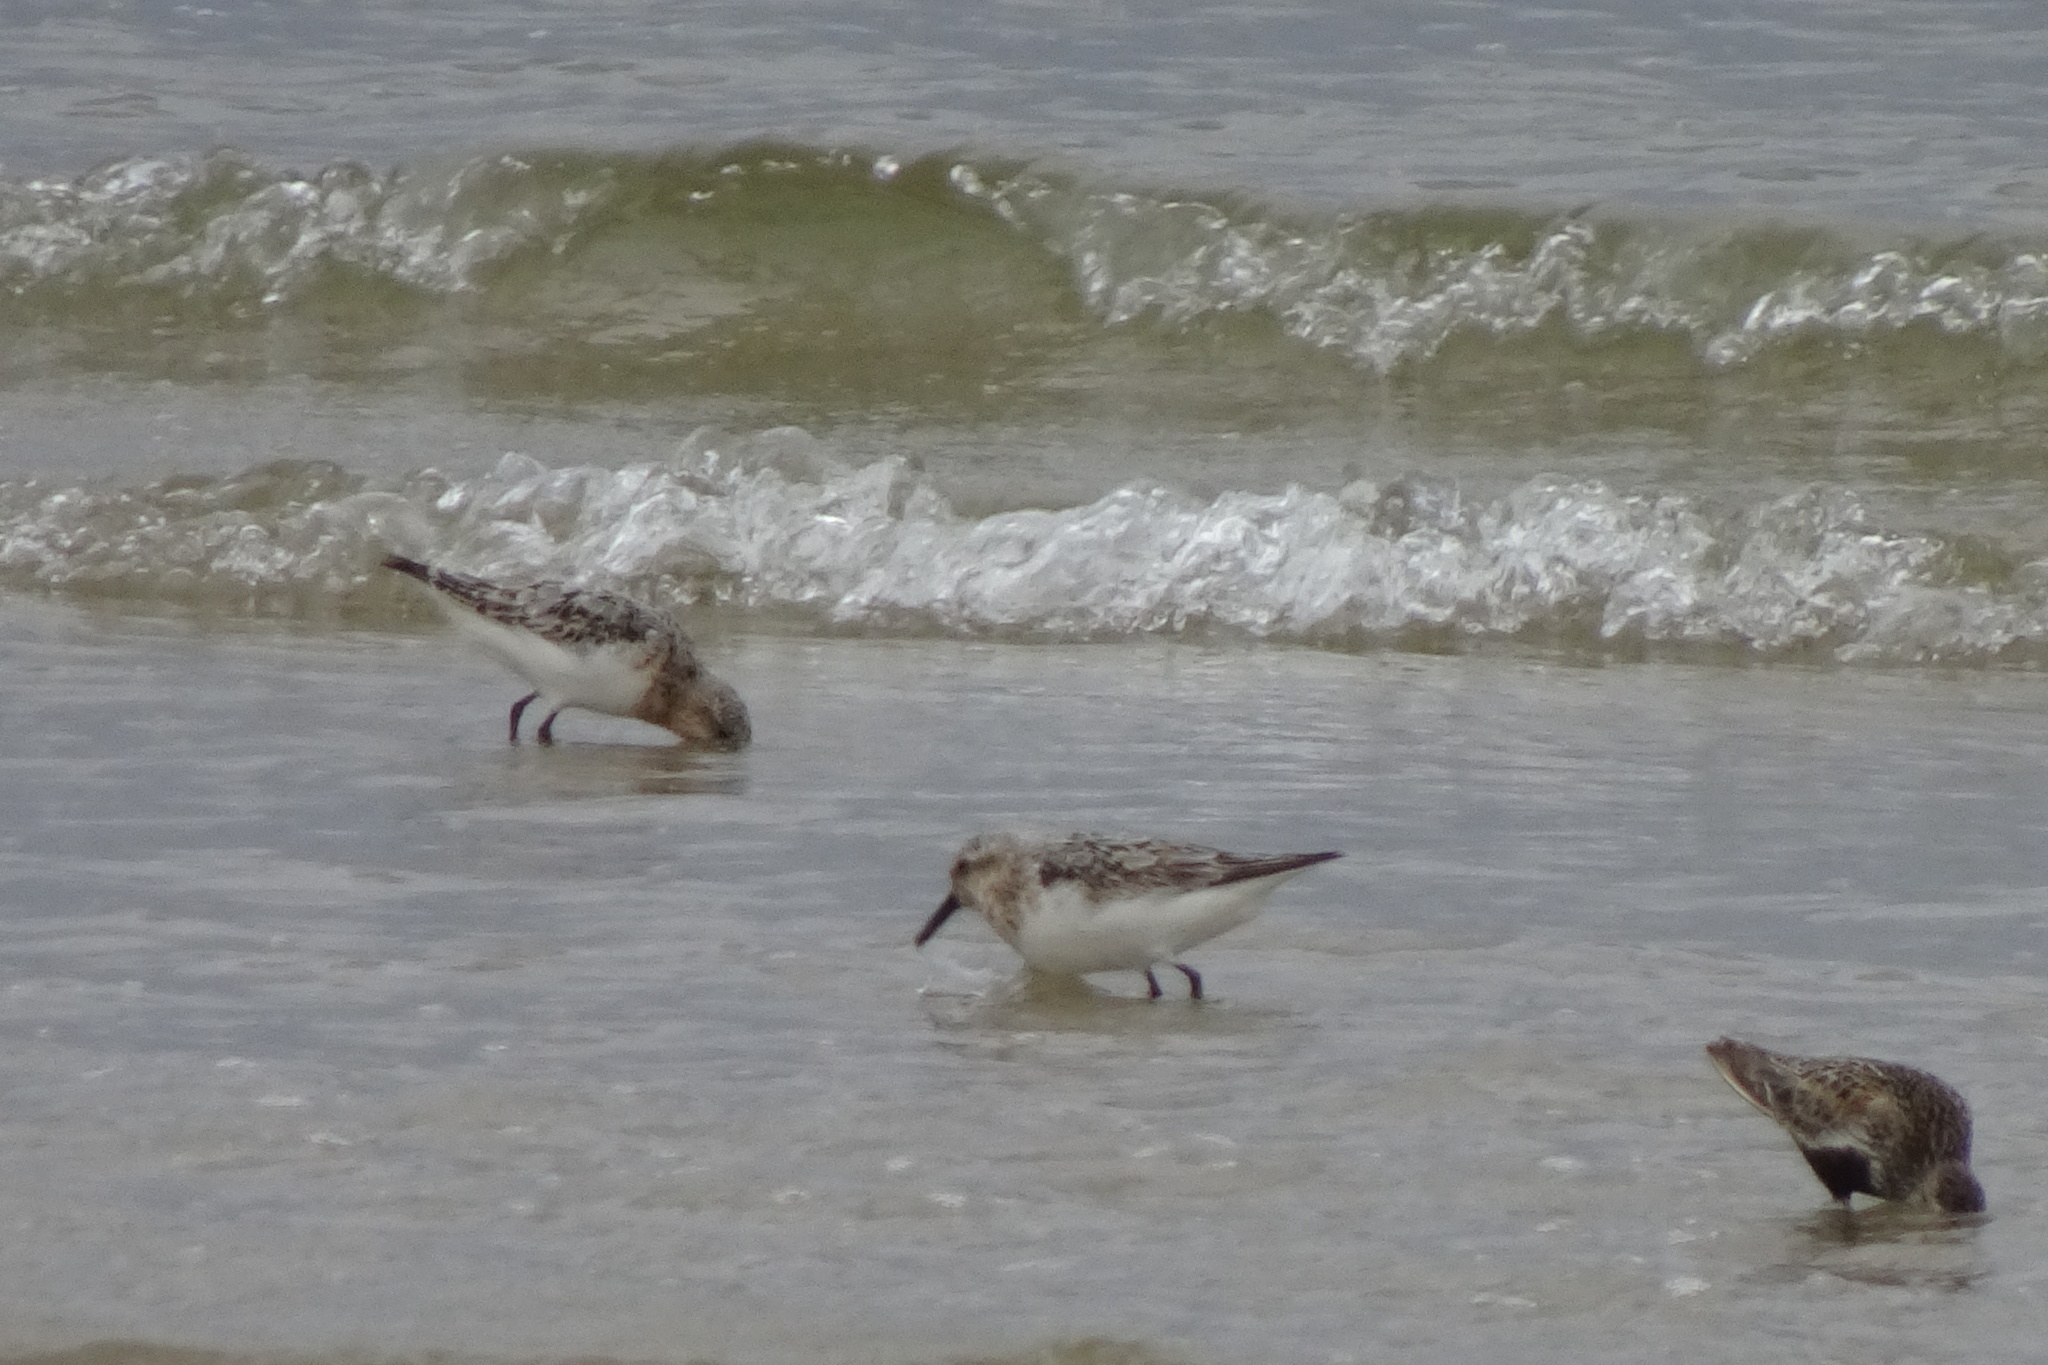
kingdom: Animalia
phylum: Chordata
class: Aves
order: Charadriiformes
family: Scolopacidae
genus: Calidris
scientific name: Calidris alba
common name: Sanderling
